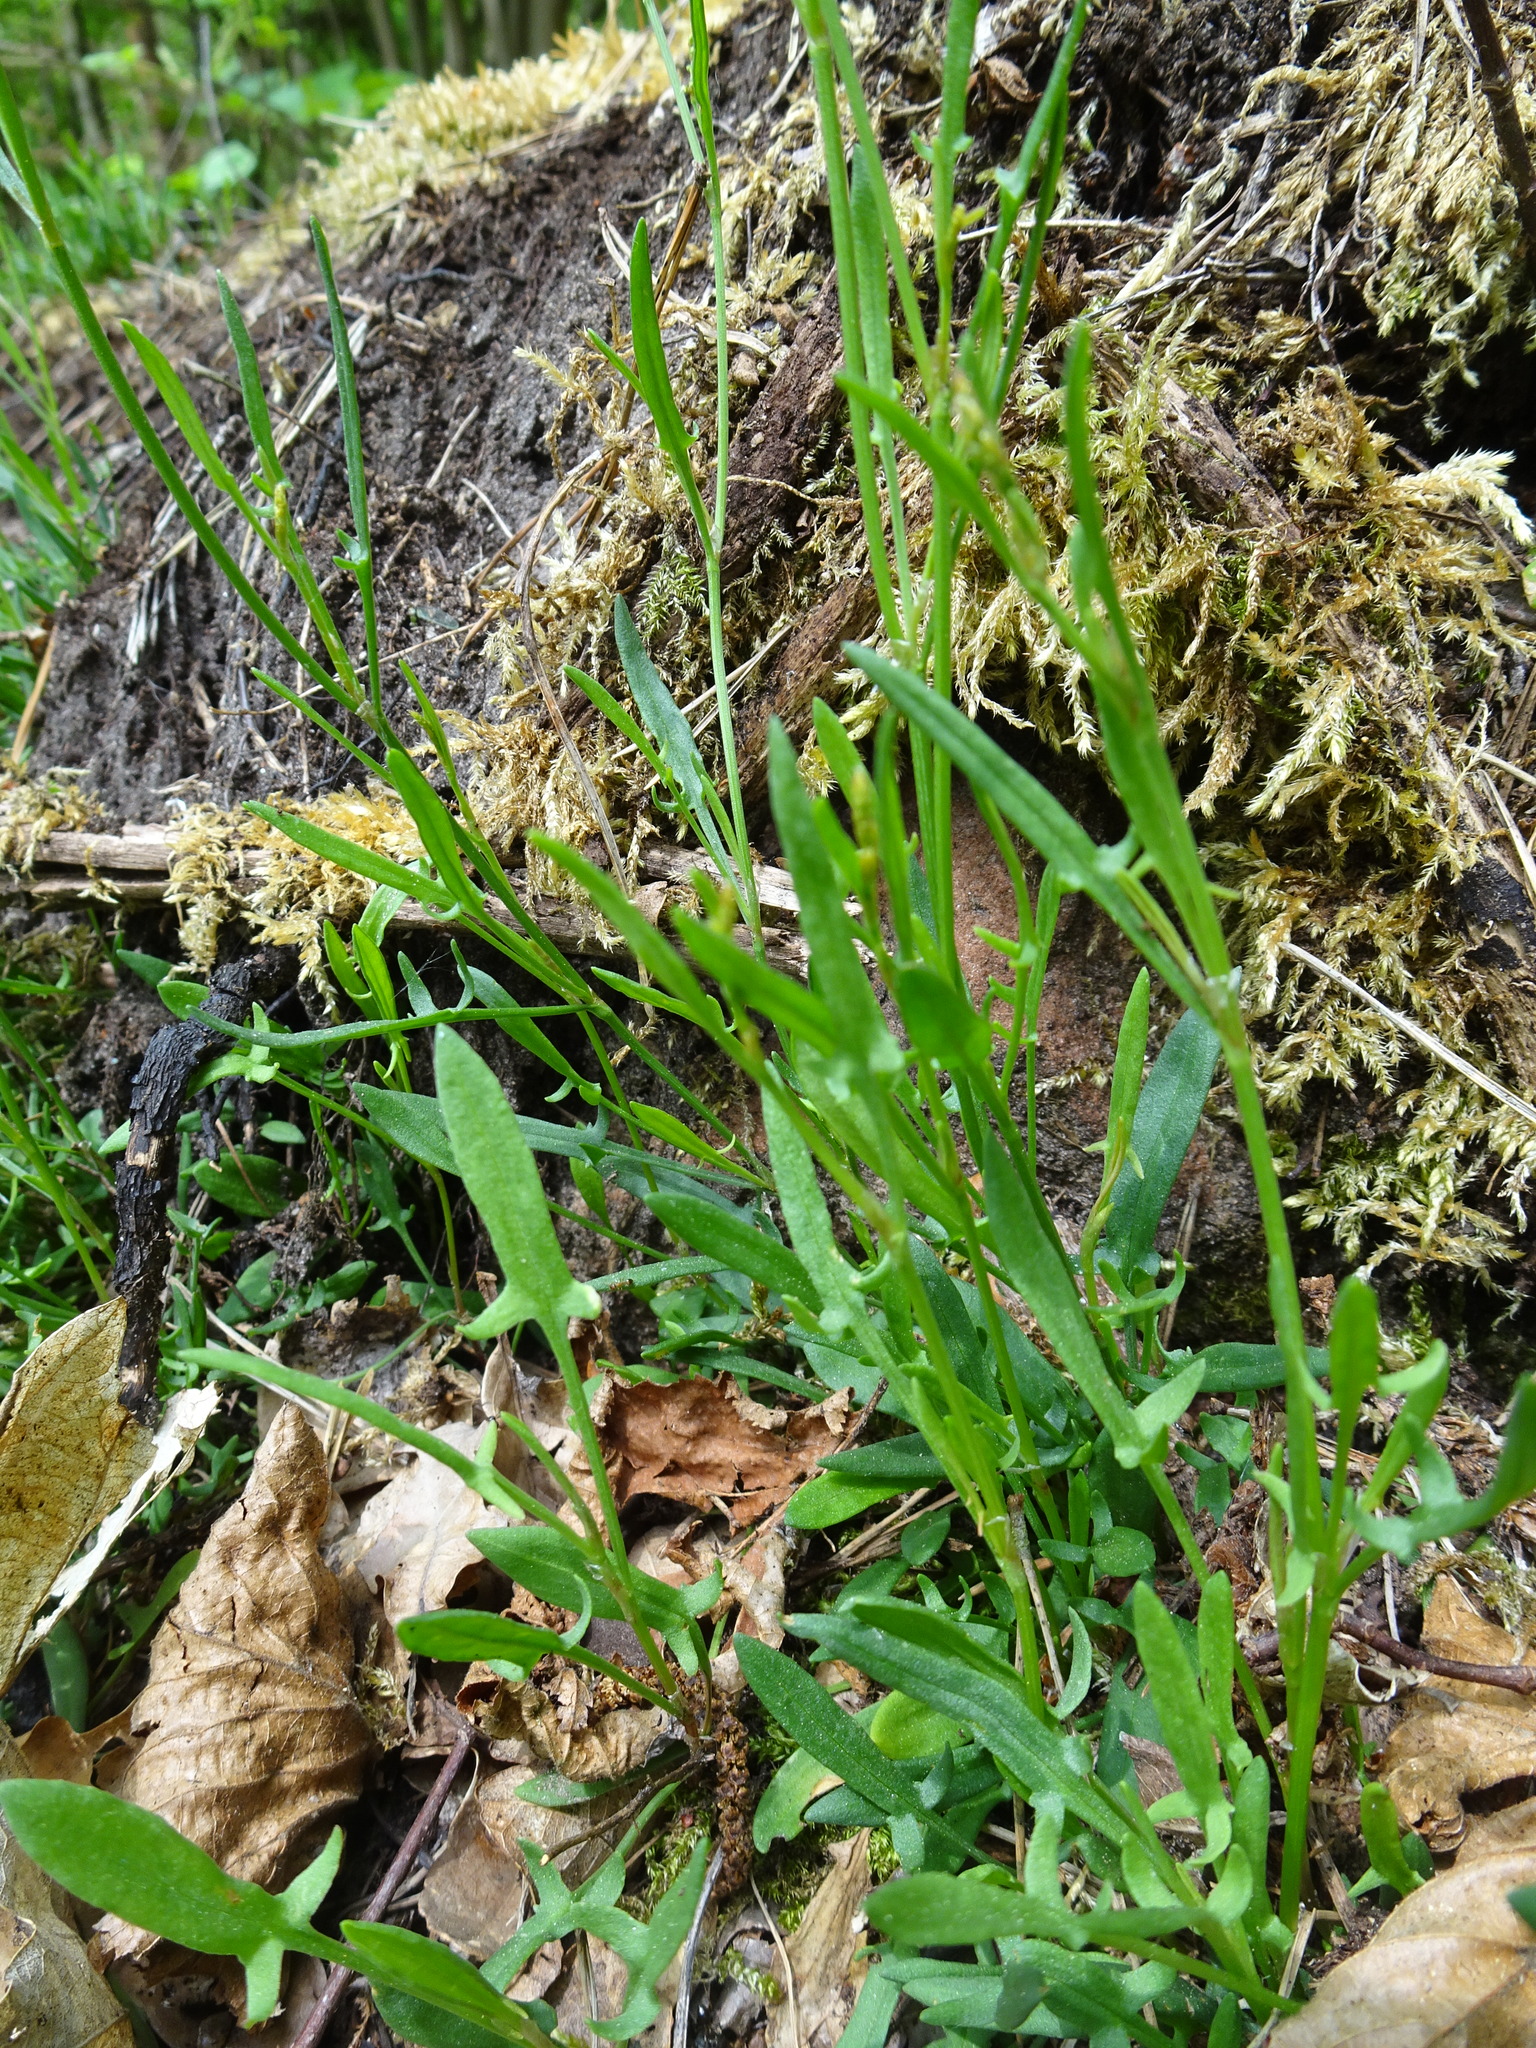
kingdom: Plantae
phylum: Tracheophyta
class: Magnoliopsida
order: Caryophyllales
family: Polygonaceae
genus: Rumex
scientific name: Rumex acetosella
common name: Common sheep sorrel
